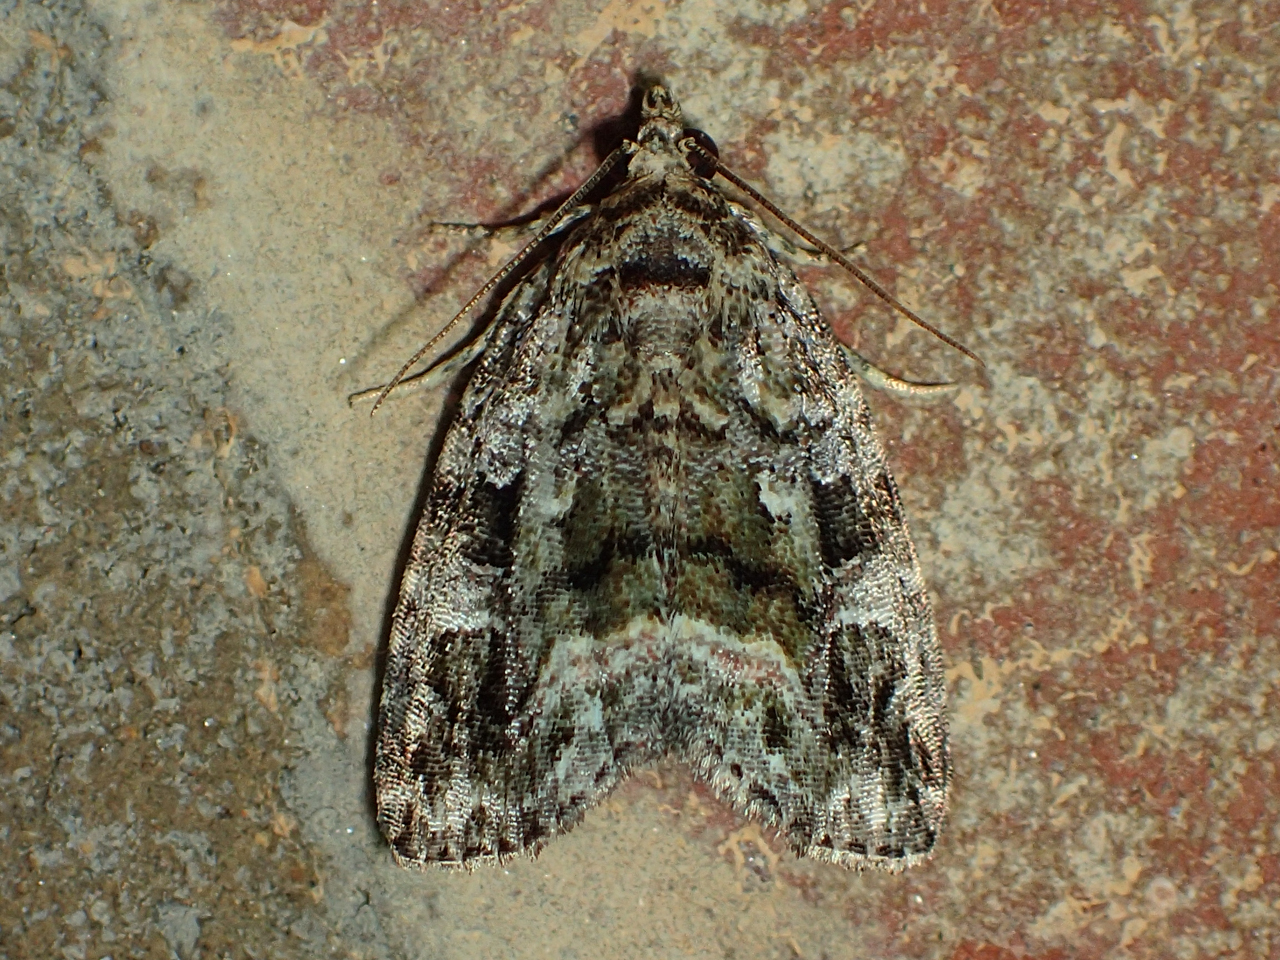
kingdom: Animalia
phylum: Arthropoda
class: Insecta
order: Lepidoptera
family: Noctuidae
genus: Protodeltote
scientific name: Protodeltote muscosula
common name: Large mossy glyph
